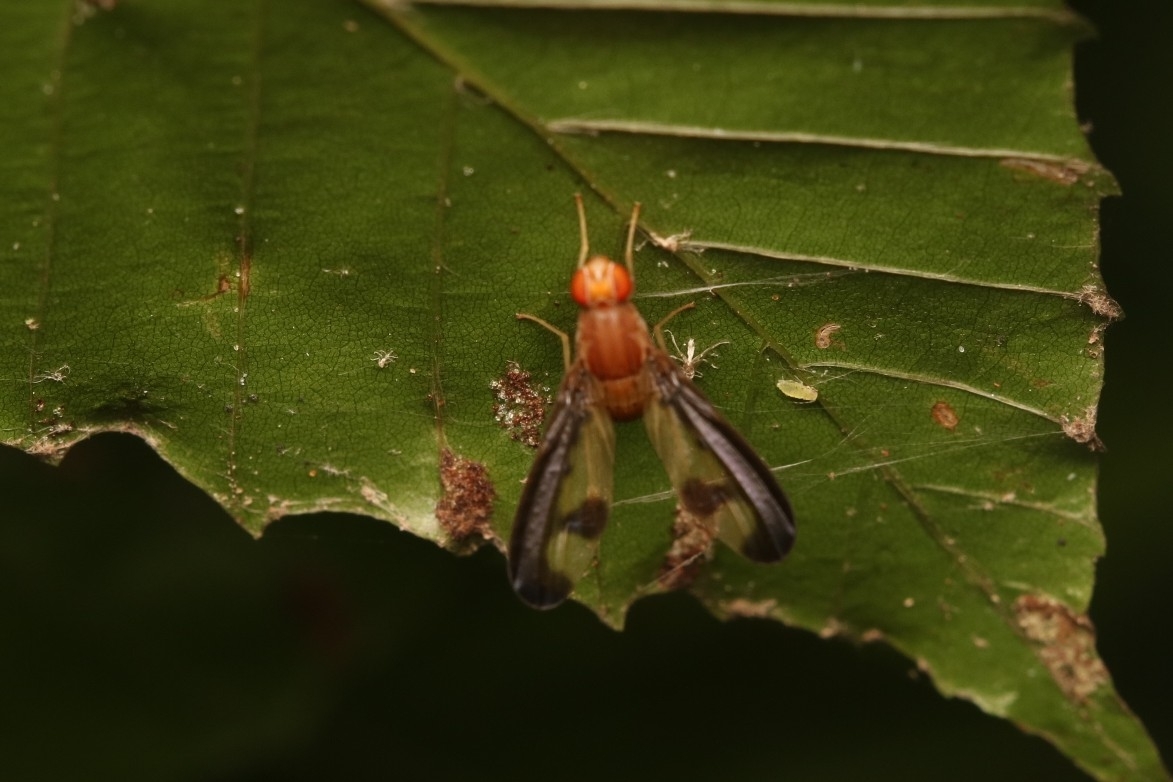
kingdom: Animalia
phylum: Arthropoda
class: Insecta
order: Diptera
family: Pallopteridae
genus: Toxonevra
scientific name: Toxonevra superba
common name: Antlered flutter fly
